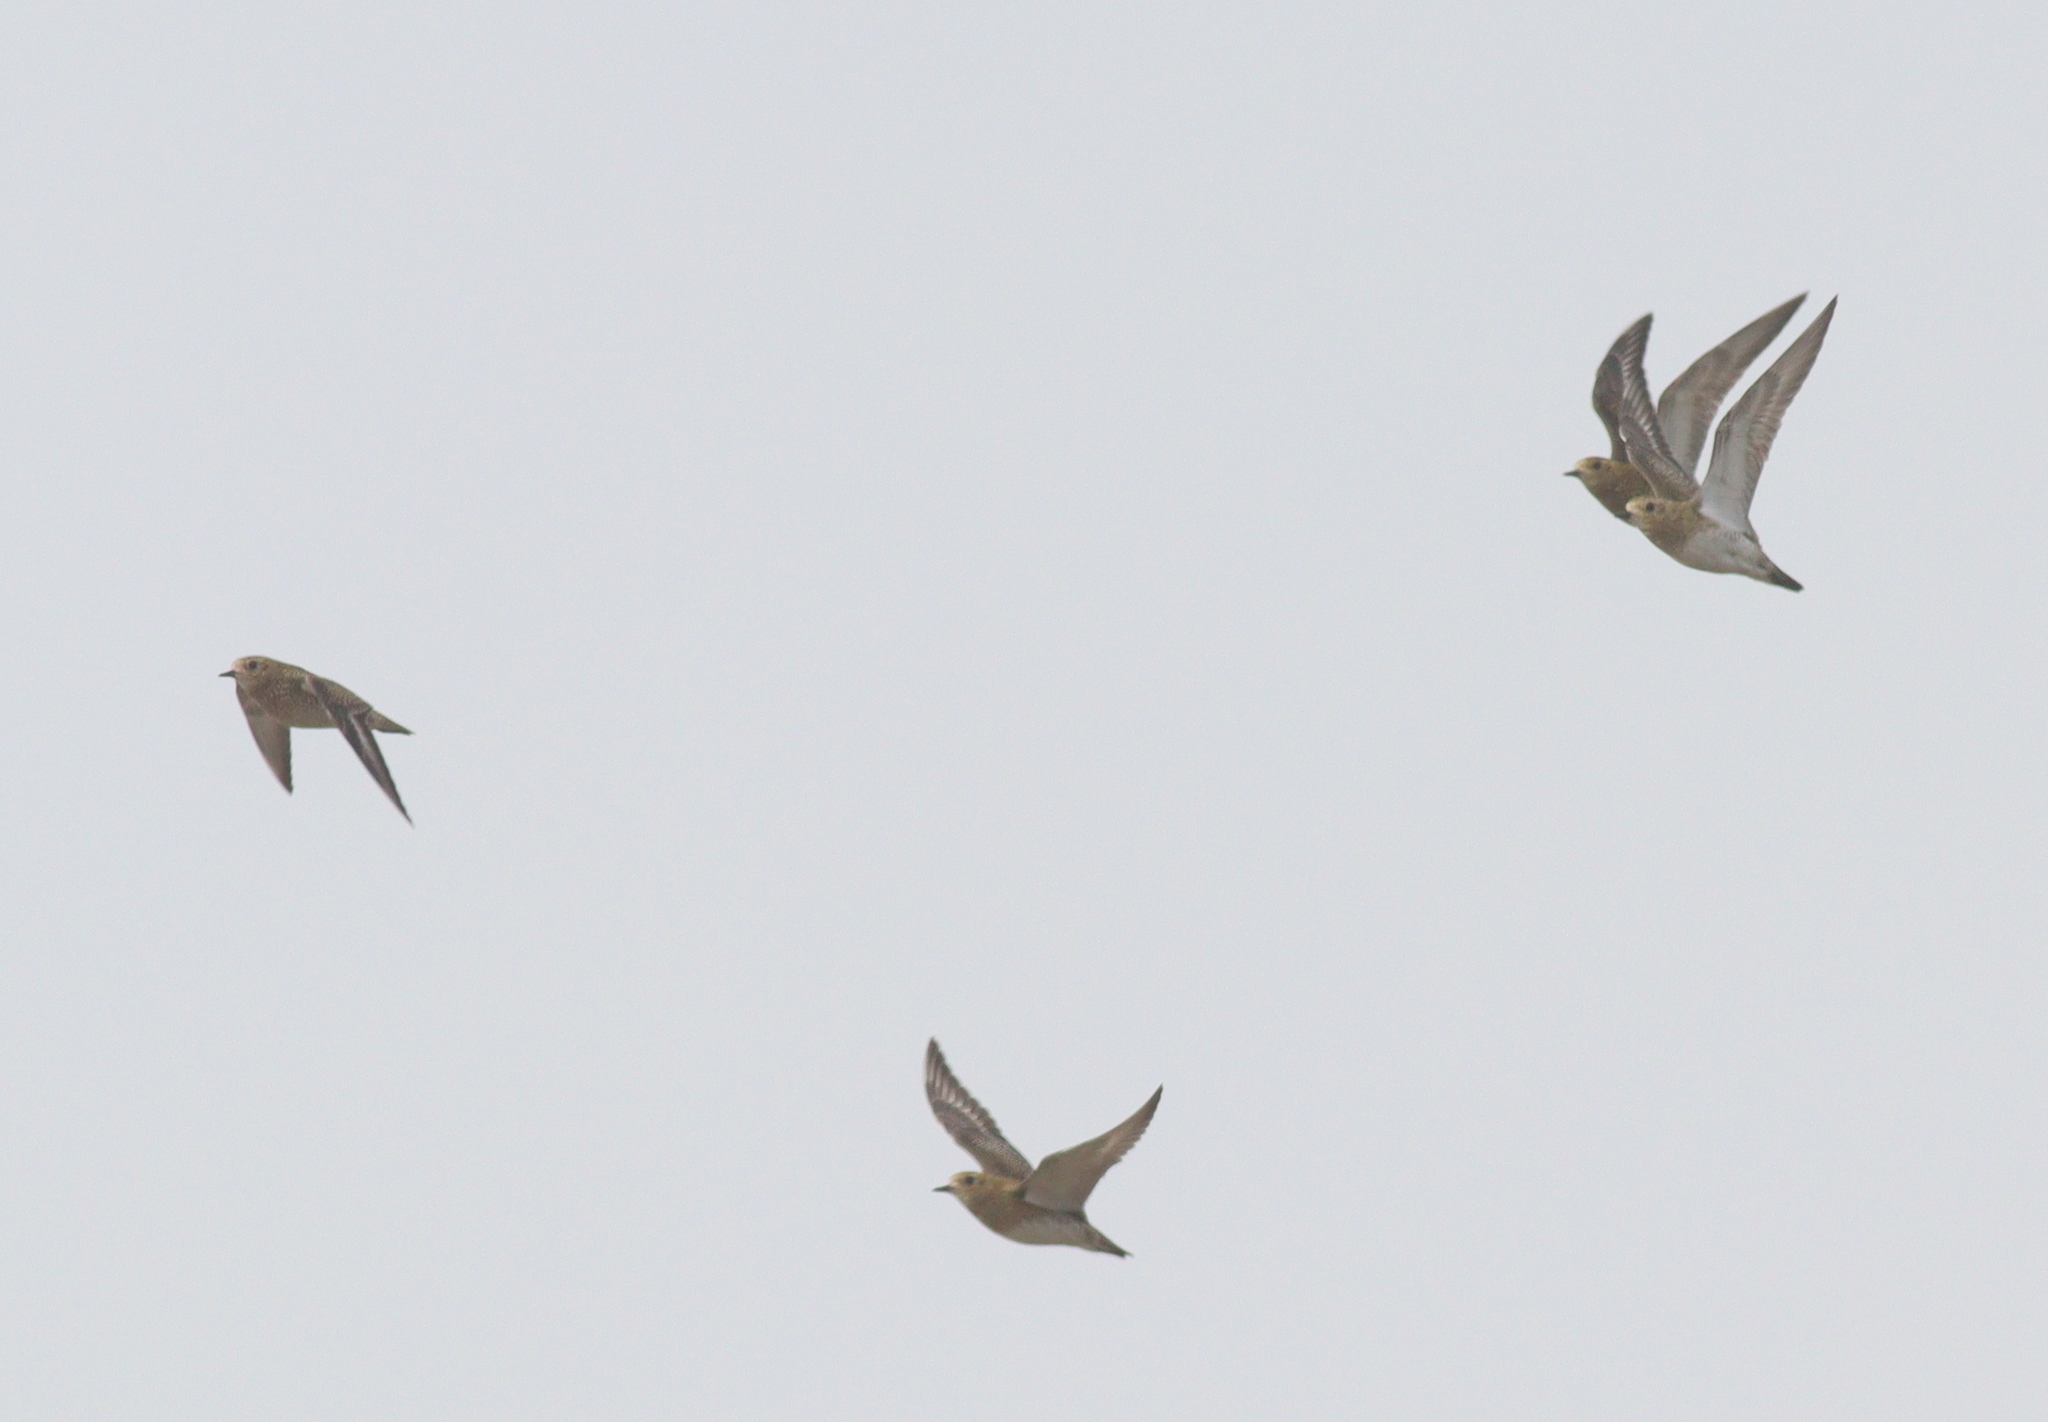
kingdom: Animalia
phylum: Chordata
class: Aves
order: Charadriiformes
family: Charadriidae
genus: Pluvialis
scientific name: Pluvialis apricaria
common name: European golden plover
